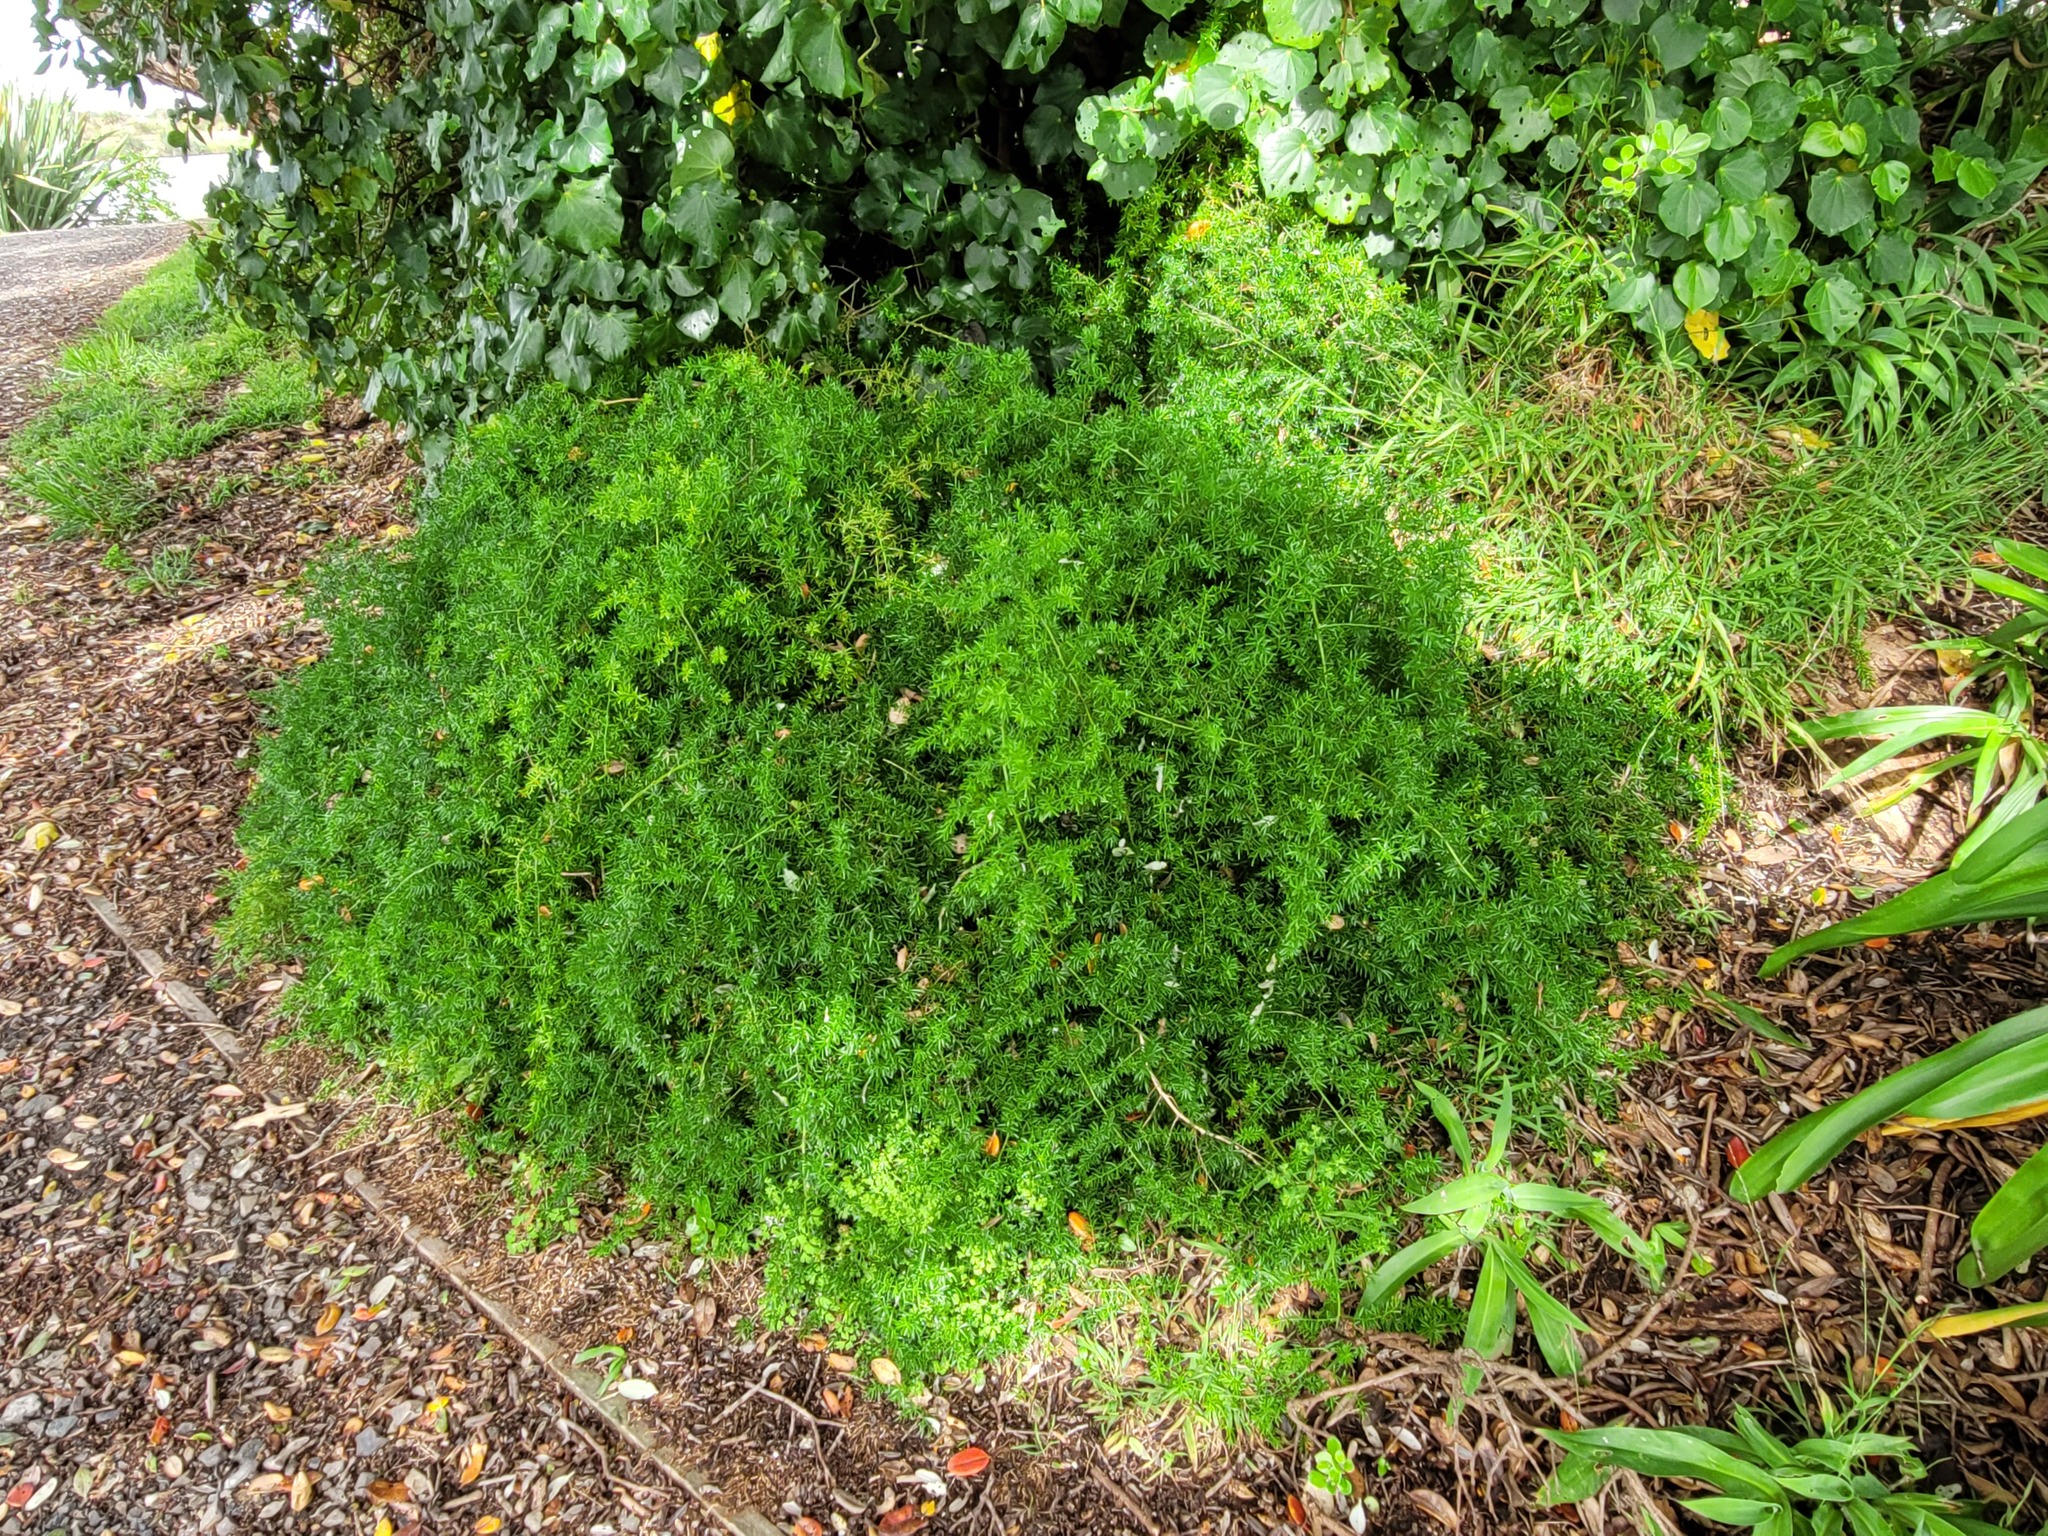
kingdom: Plantae
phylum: Tracheophyta
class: Liliopsida
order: Asparagales
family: Asparagaceae
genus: Asparagus
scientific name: Asparagus aethiopicus
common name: Sprenger's asparagus fern
